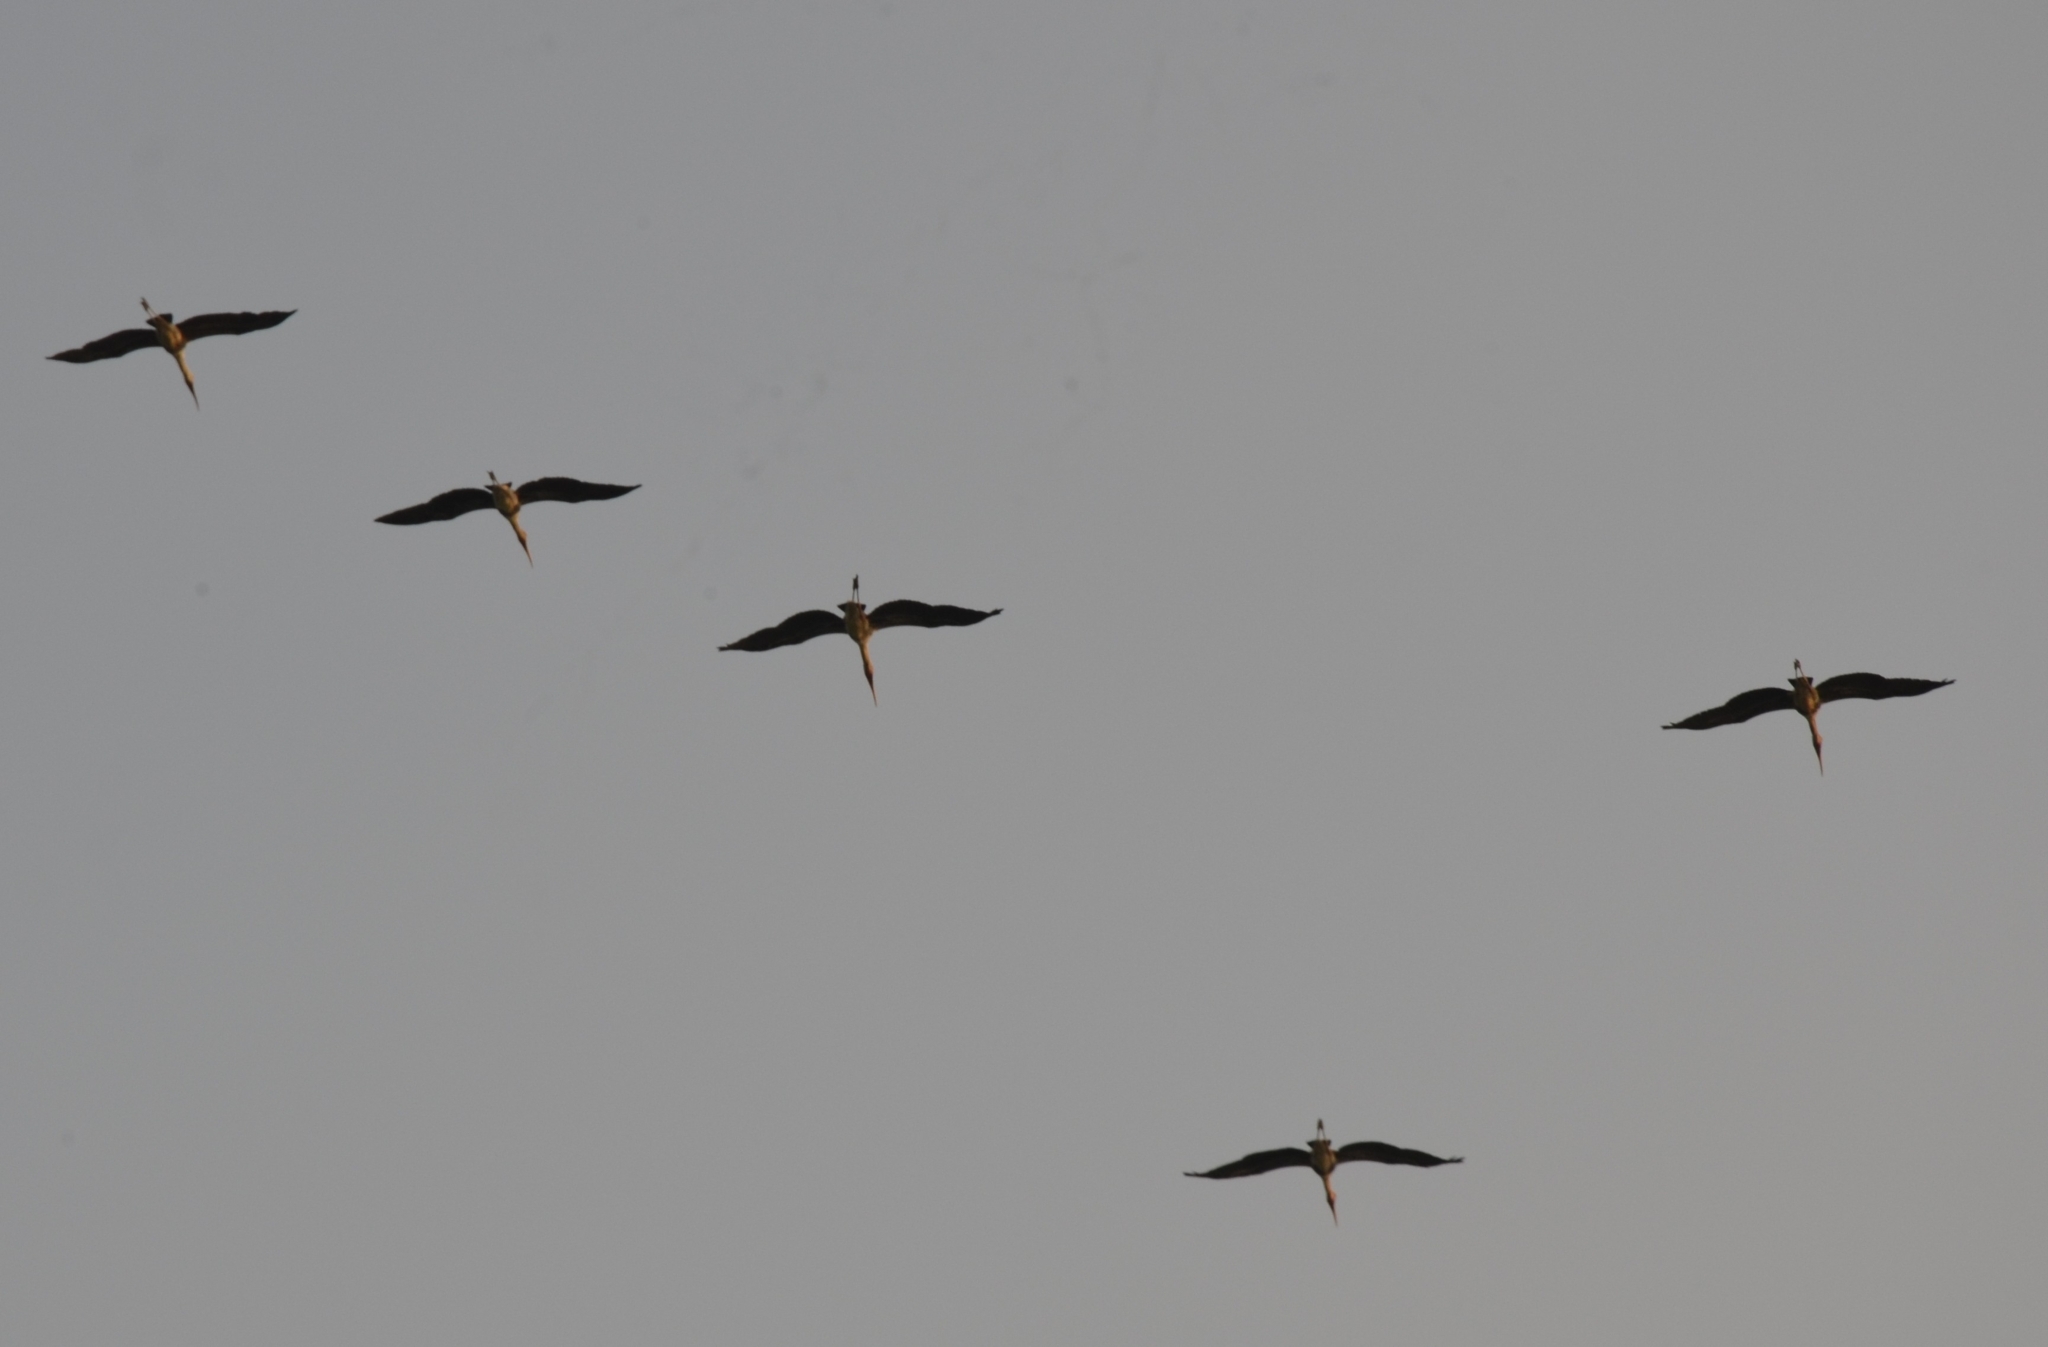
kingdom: Animalia
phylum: Chordata
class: Aves
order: Ciconiiformes
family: Ciconiidae
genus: Mycteria
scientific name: Mycteria leucocephala
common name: Painted stork
